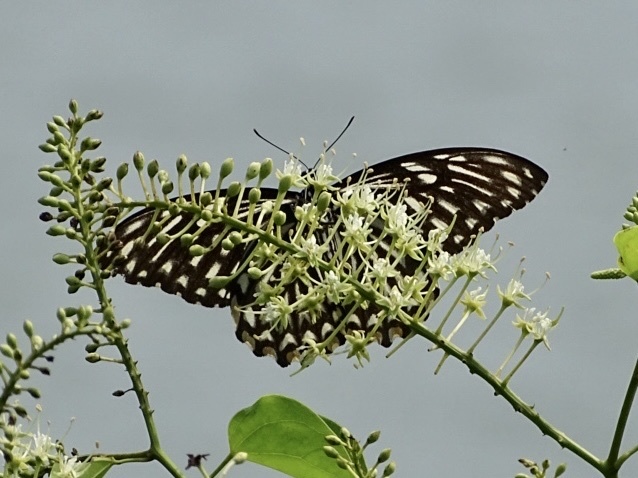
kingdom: Animalia
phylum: Arthropoda
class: Insecta
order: Lepidoptera
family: Papilionidae
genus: Chilasa
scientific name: Chilasa clytia
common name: Common mime
